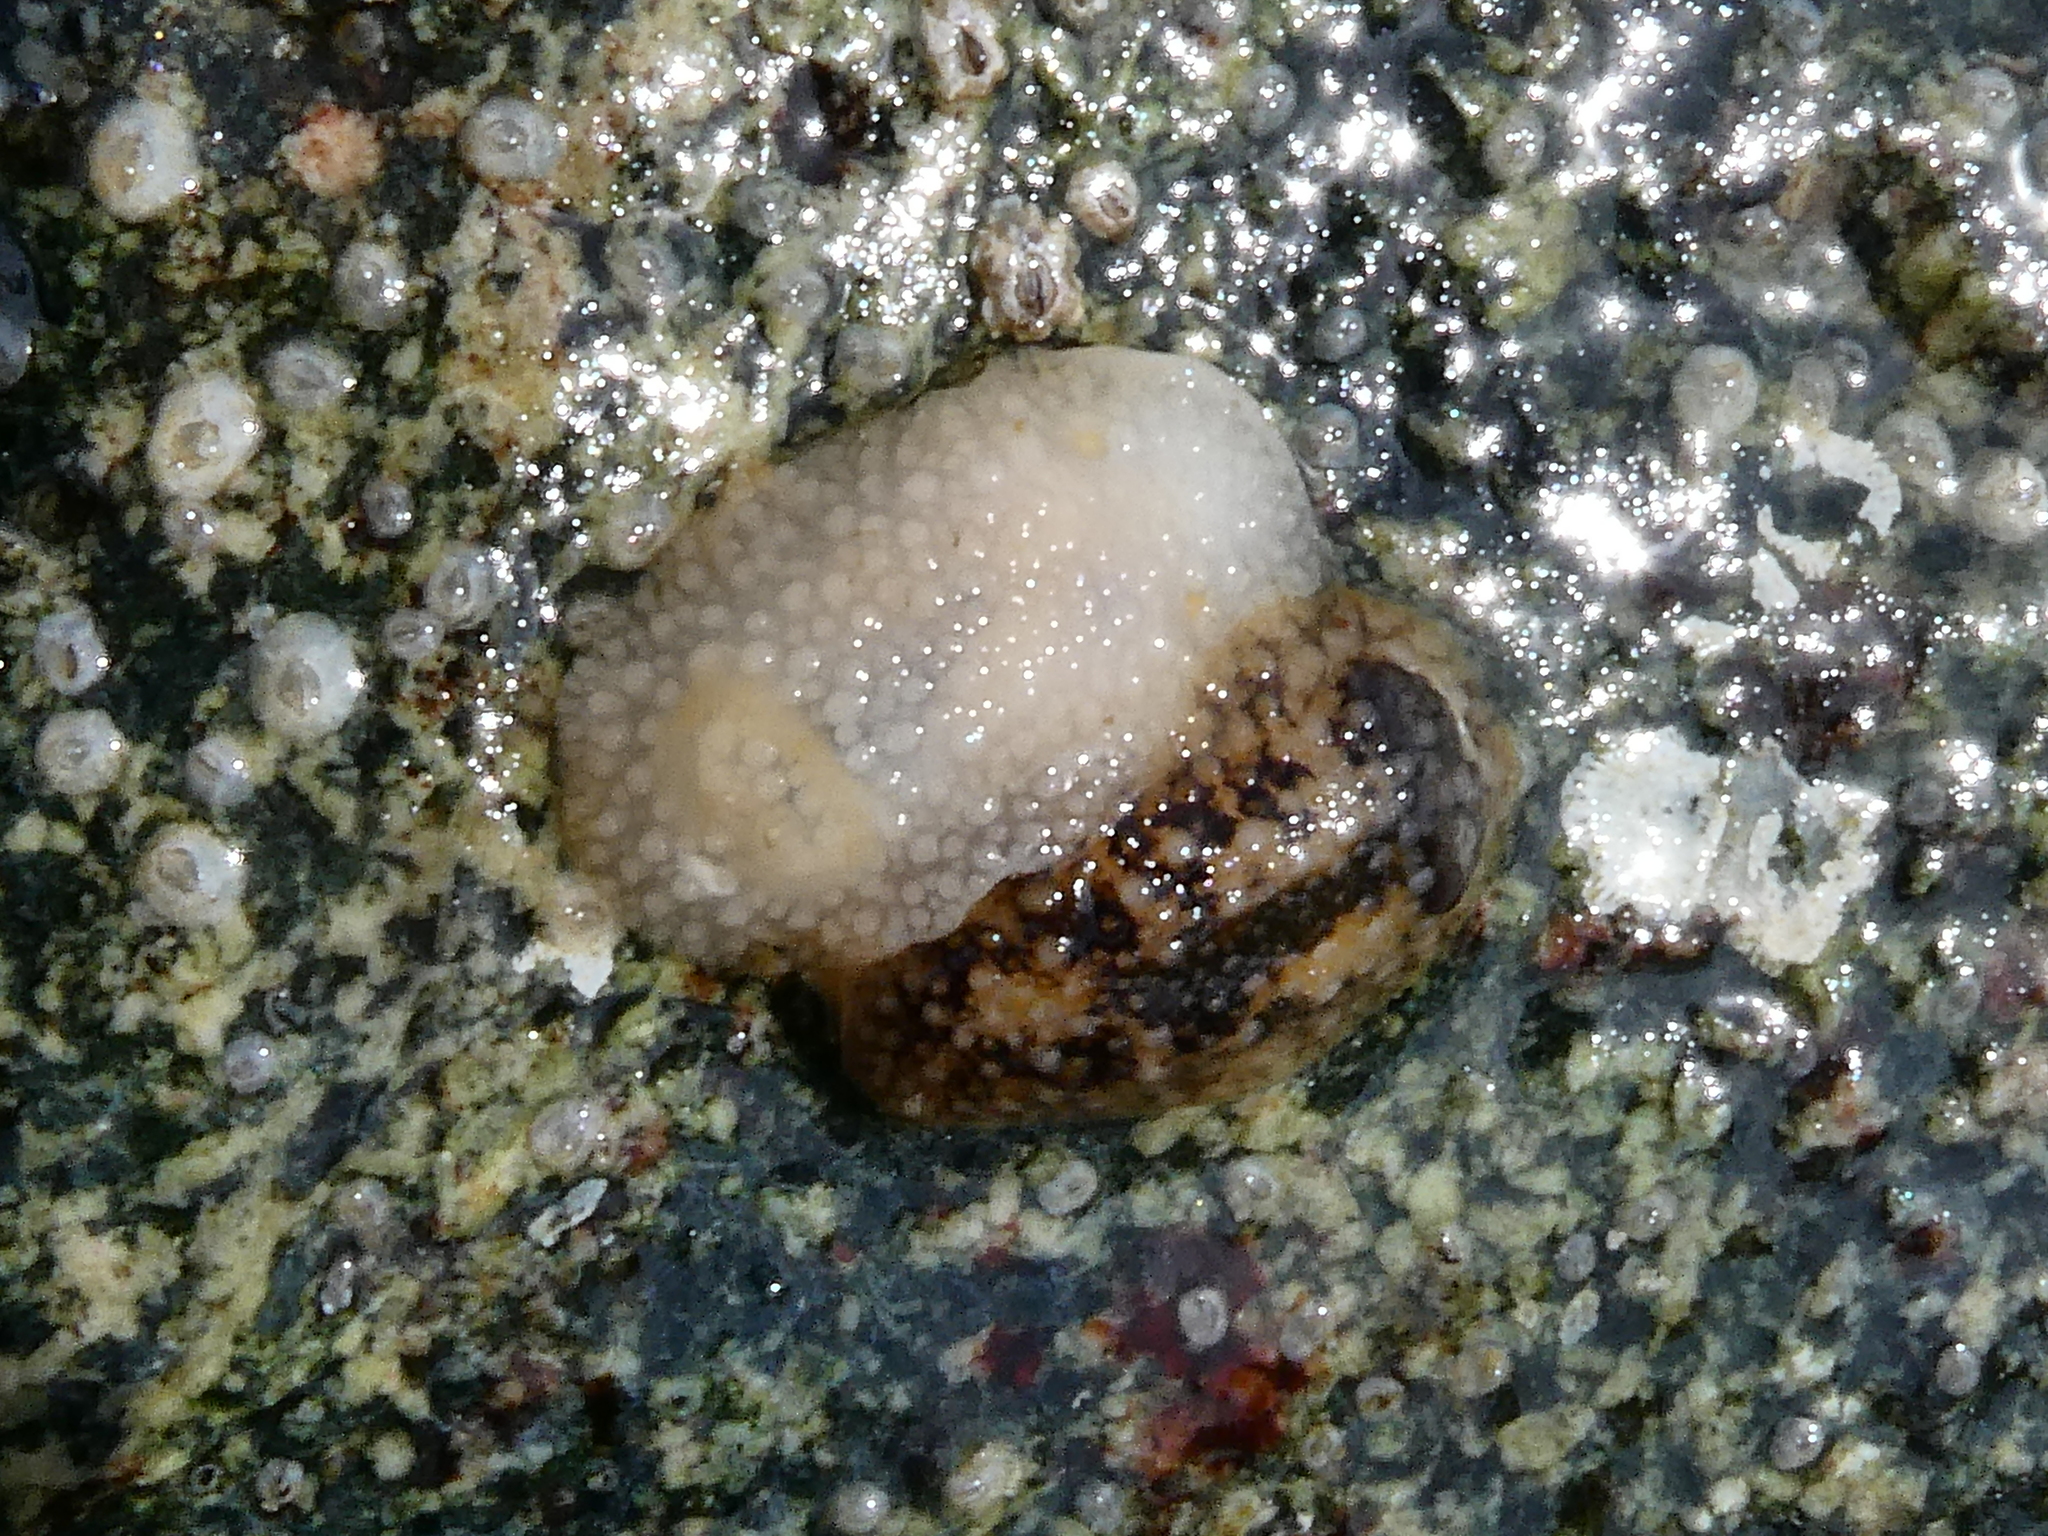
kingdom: Animalia
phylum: Mollusca
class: Gastropoda
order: Nudibranchia
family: Onchidorididae
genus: Onchidoris
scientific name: Onchidoris bilamellata
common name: Barnacle-eating onchidoris
